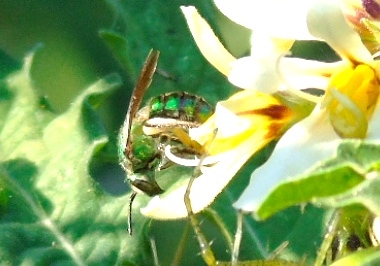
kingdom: Animalia
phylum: Arthropoda
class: Insecta
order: Hymenoptera
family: Halictidae
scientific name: Halictidae
